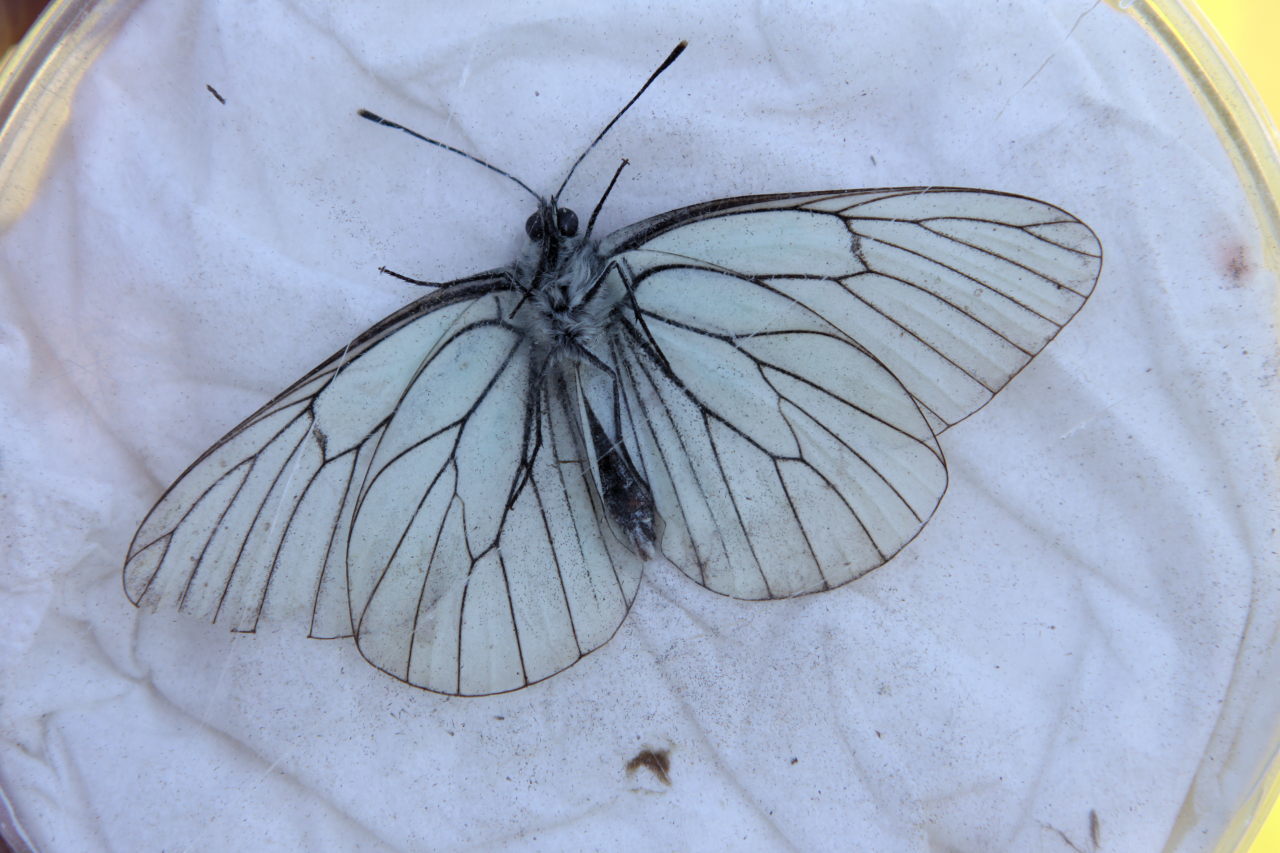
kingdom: Animalia
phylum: Arthropoda
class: Insecta
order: Lepidoptera
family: Pieridae
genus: Aporia
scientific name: Aporia crataegi
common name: Black-veined white
